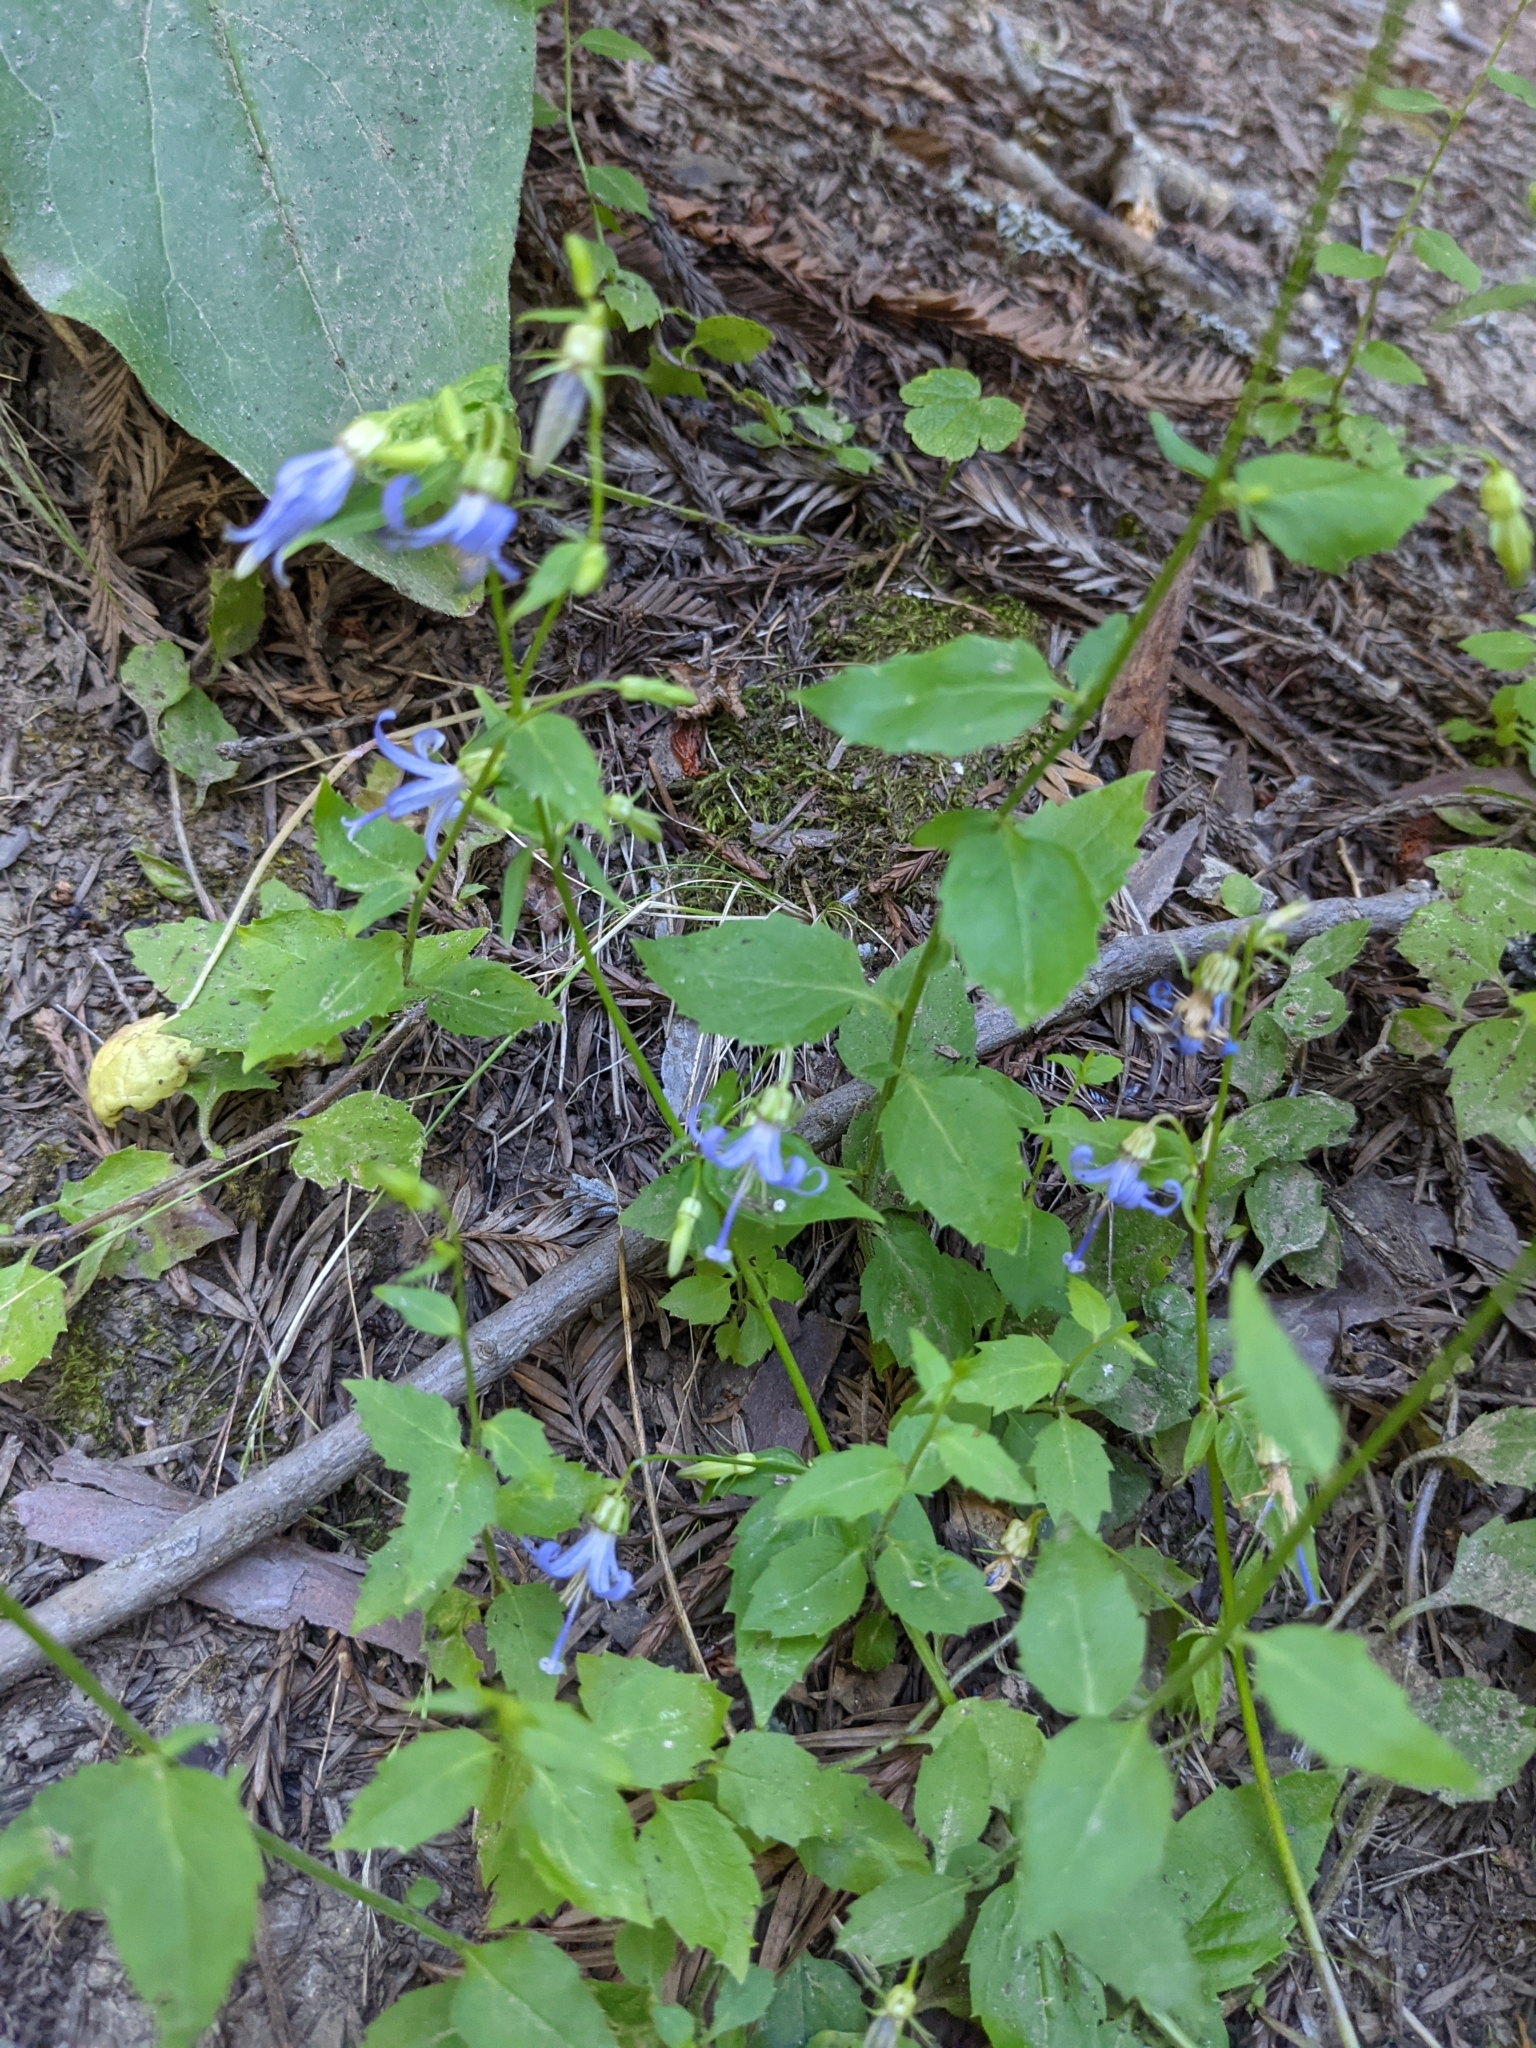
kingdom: Plantae
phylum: Tracheophyta
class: Magnoliopsida
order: Asterales
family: Campanulaceae
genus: Smithiastrum
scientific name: Smithiastrum prenanthoides
